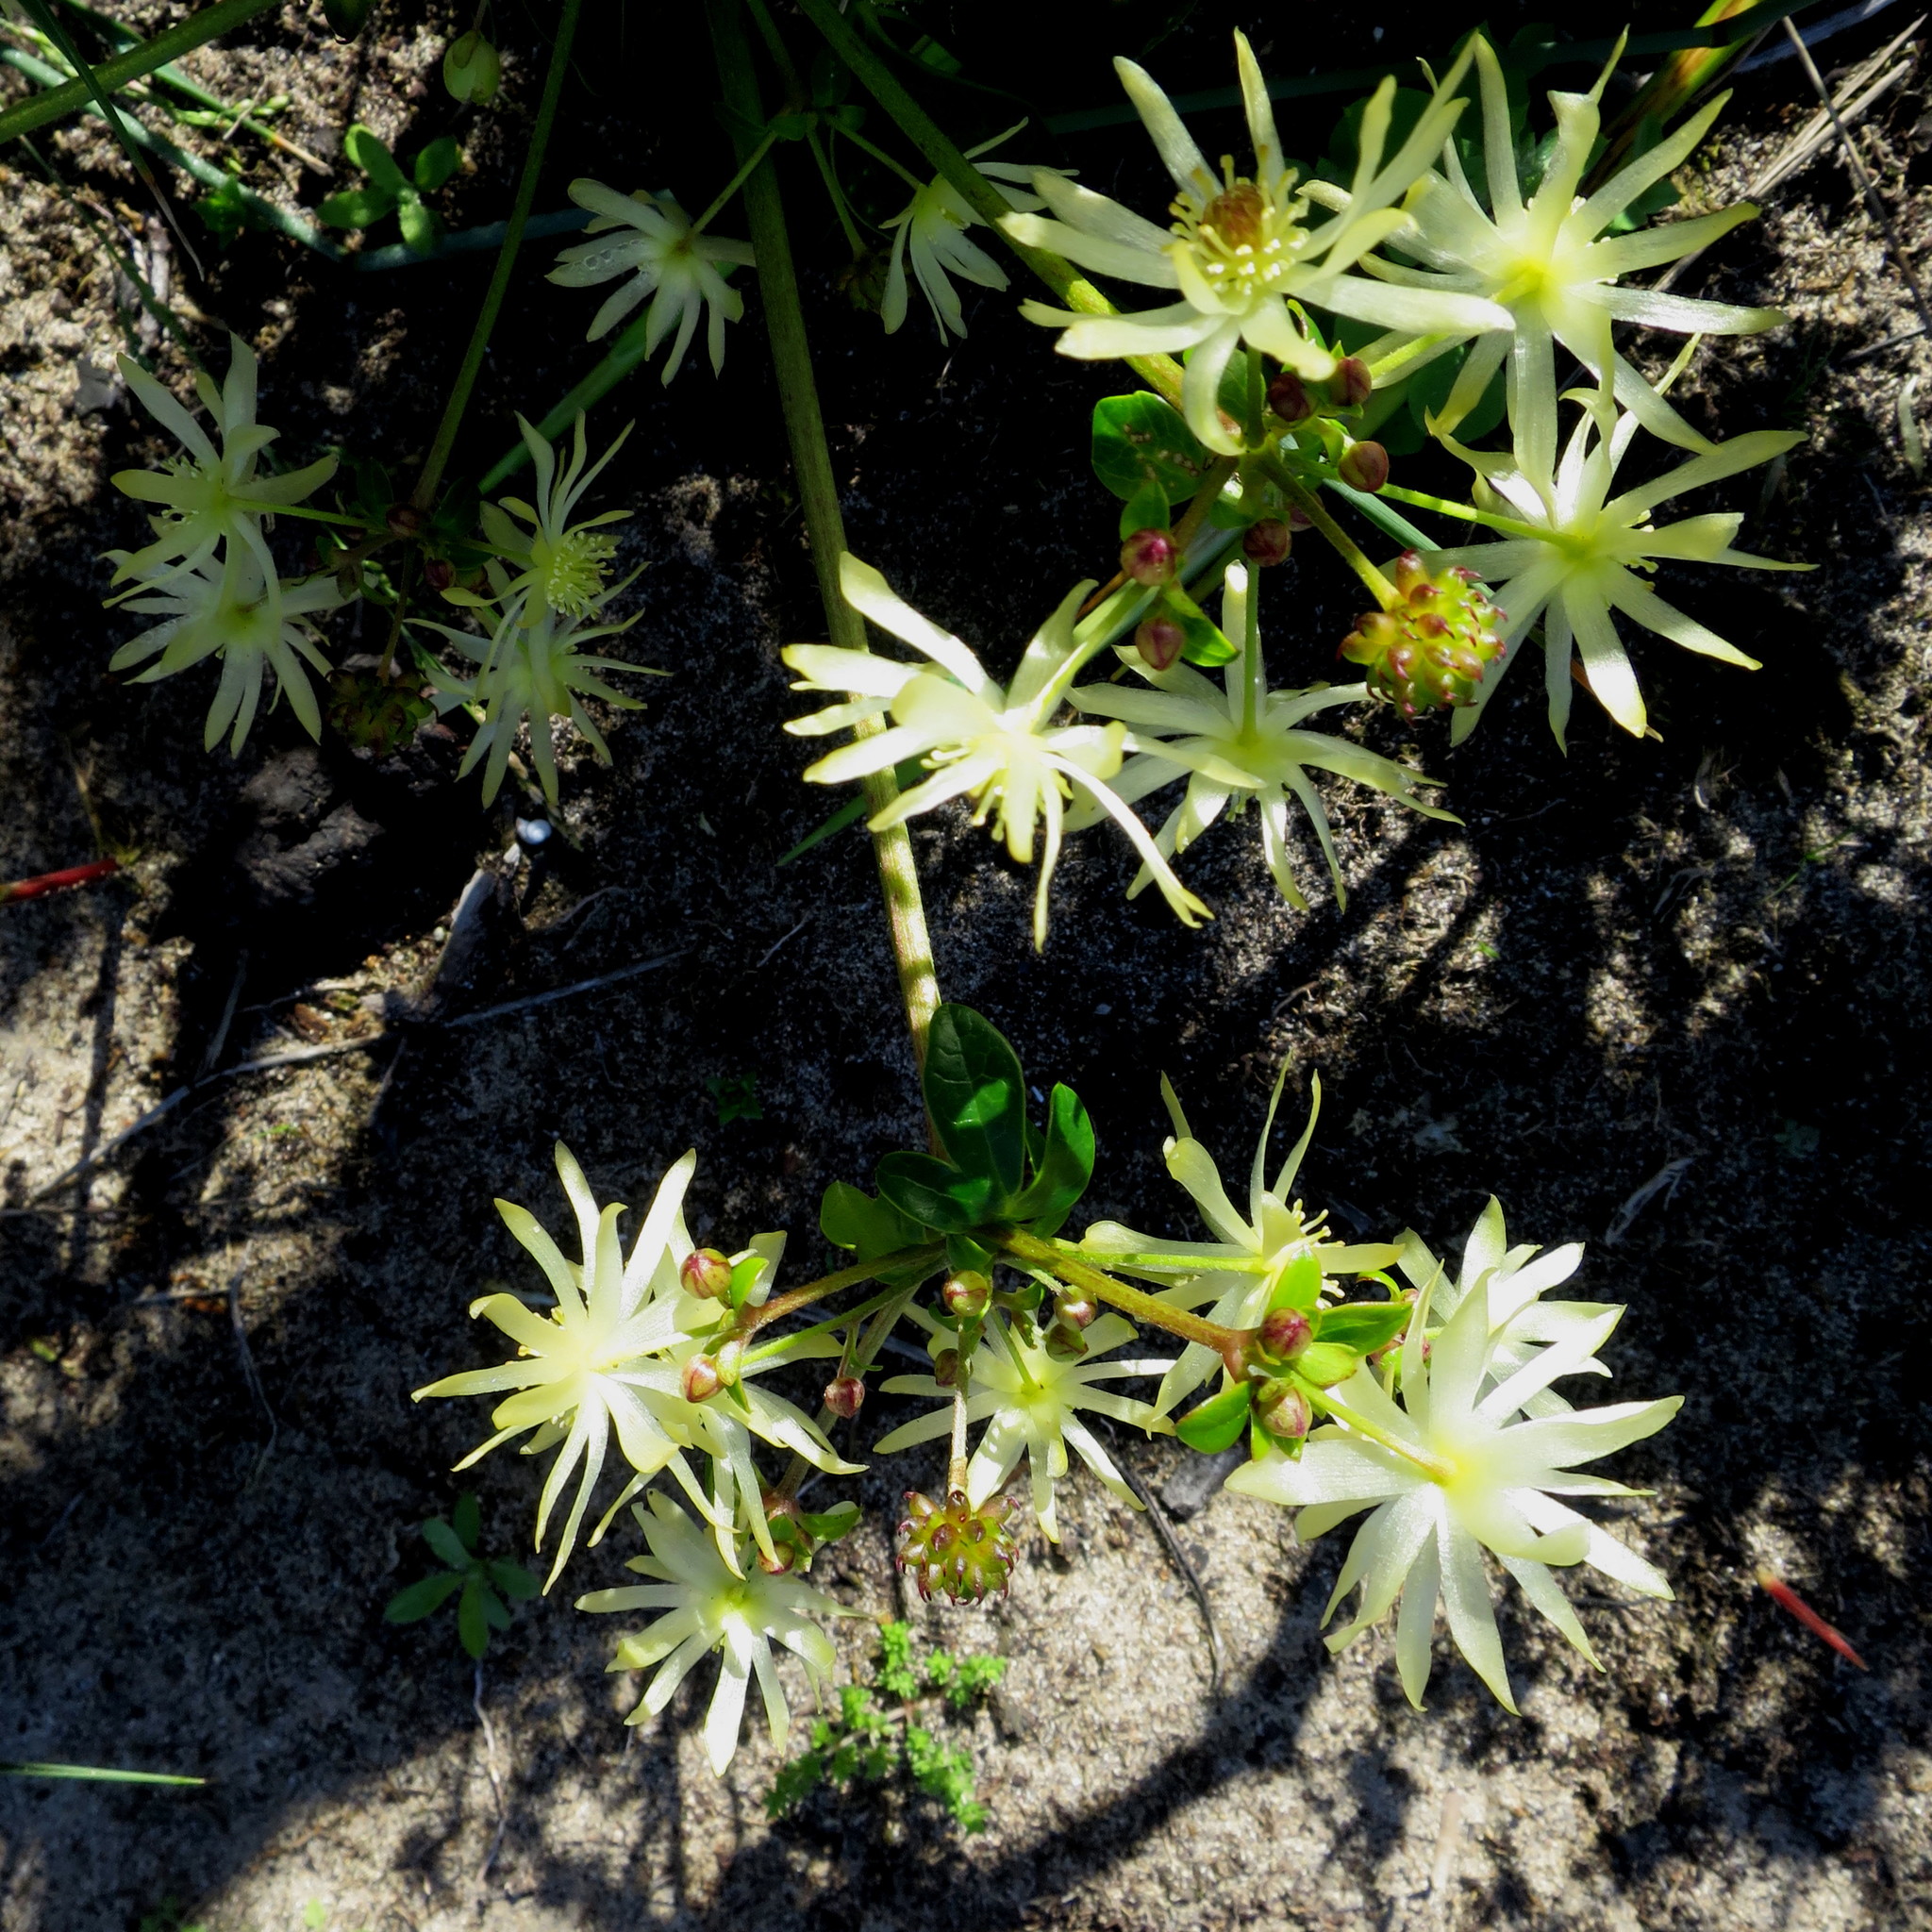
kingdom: Plantae
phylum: Tracheophyta
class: Magnoliopsida
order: Ranunculales
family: Ranunculaceae
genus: Knowltonia
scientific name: Knowltonia vesicatoria
